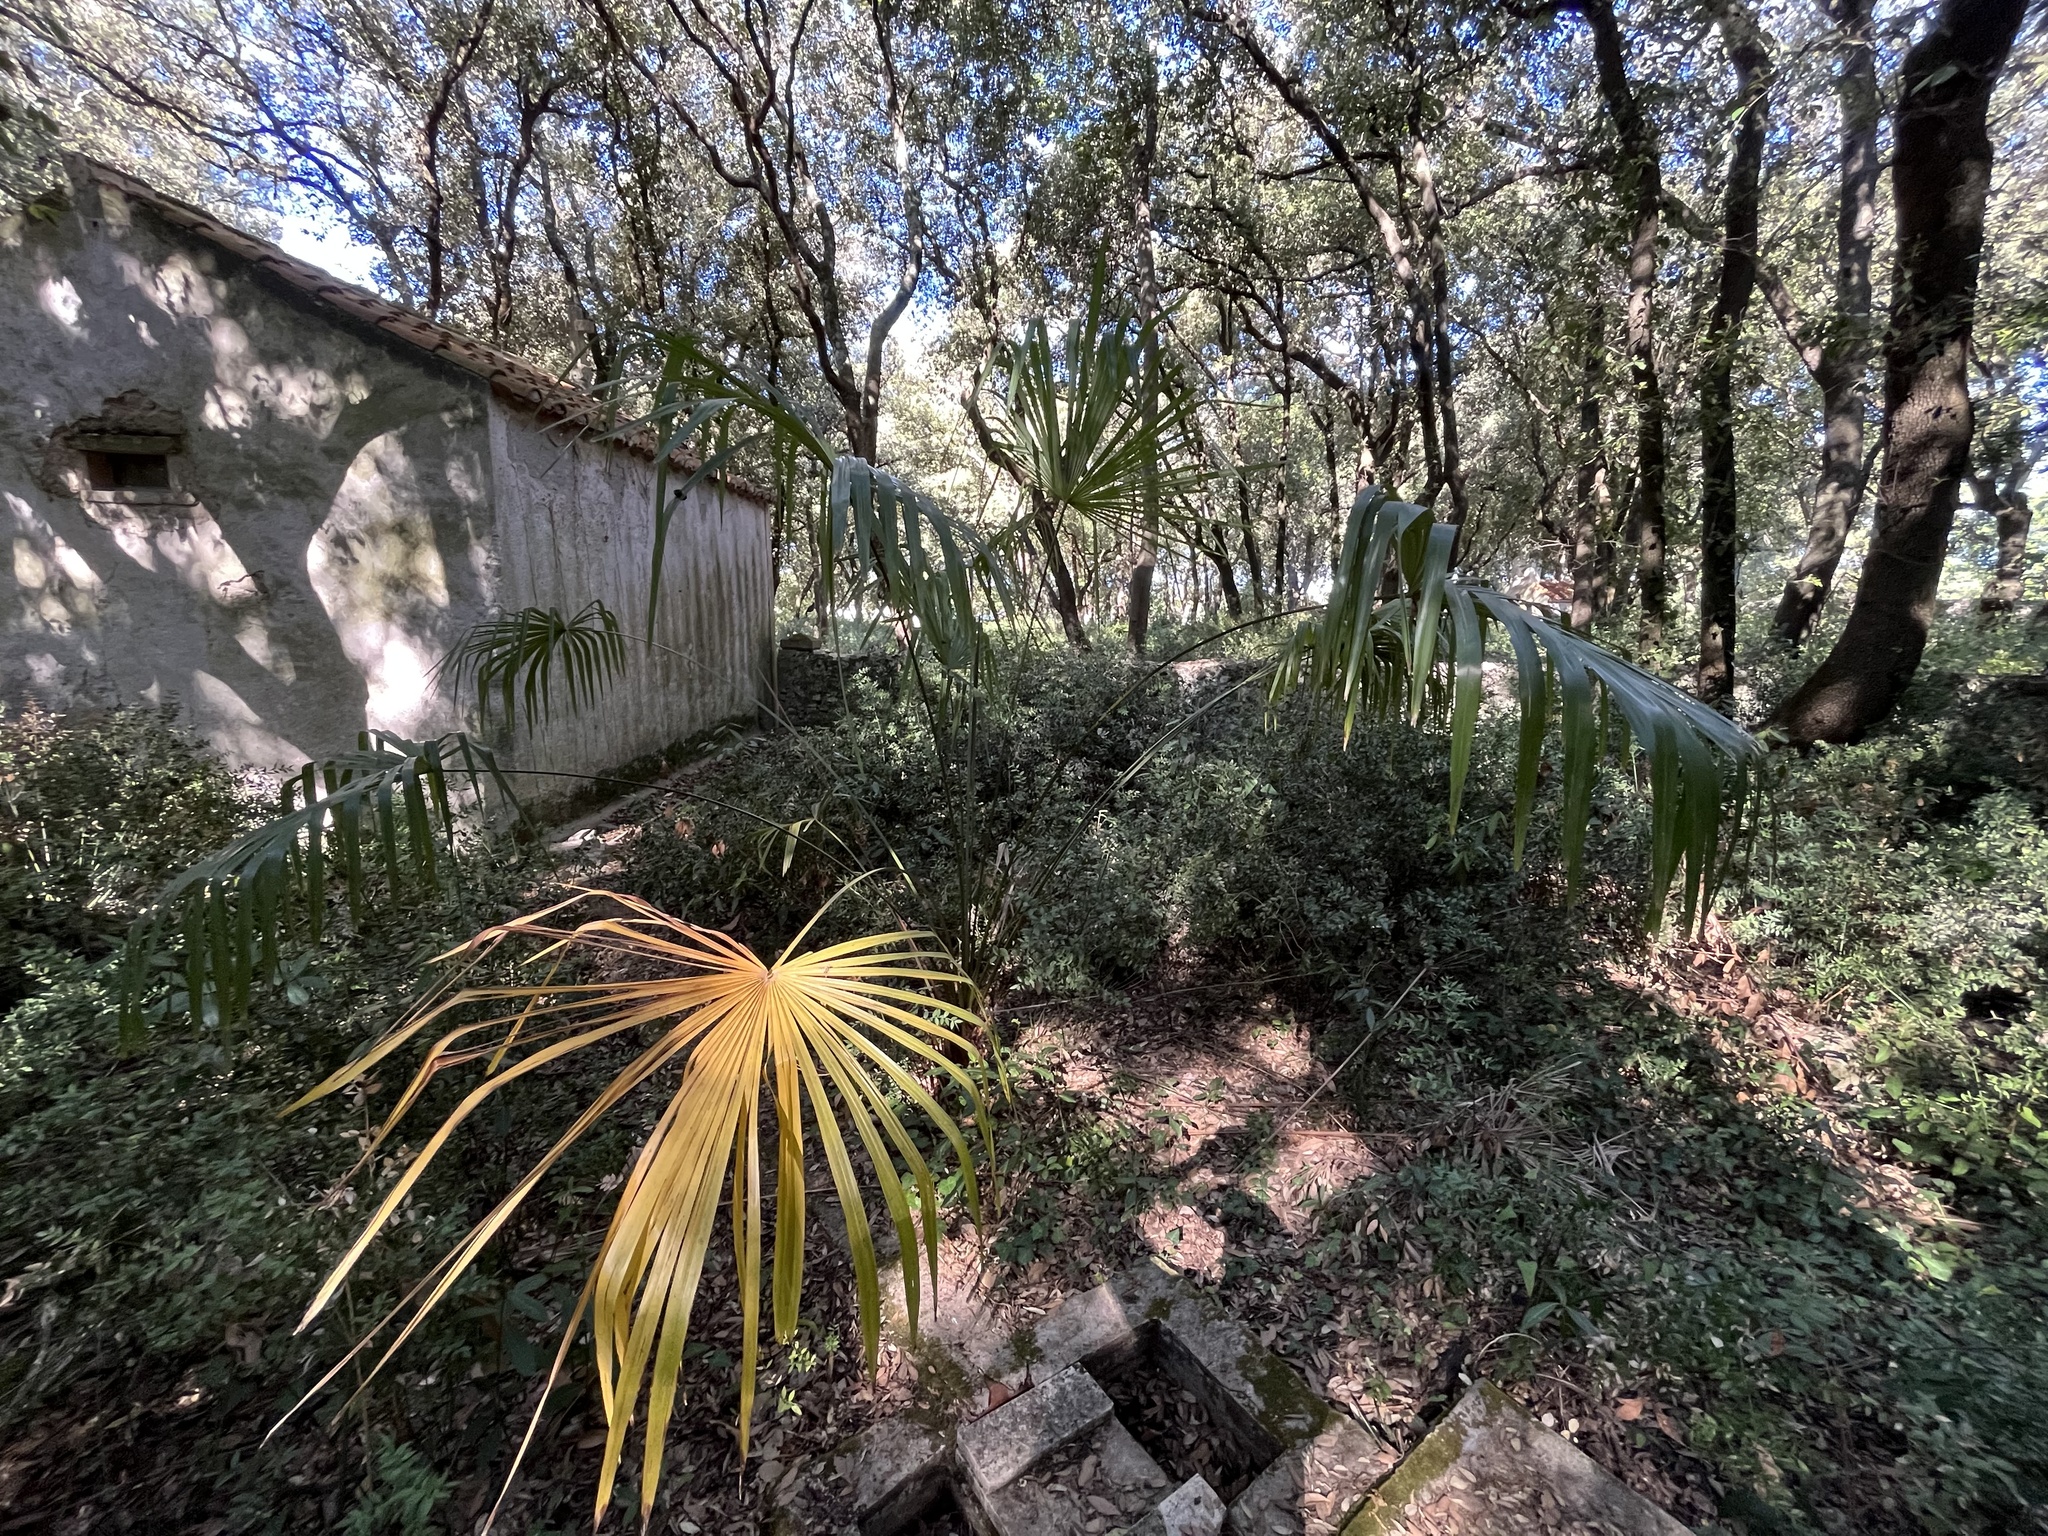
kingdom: Plantae
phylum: Tracheophyta
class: Liliopsida
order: Arecales
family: Arecaceae
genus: Trachycarpus
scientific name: Trachycarpus fortunei
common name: Chusan palm
